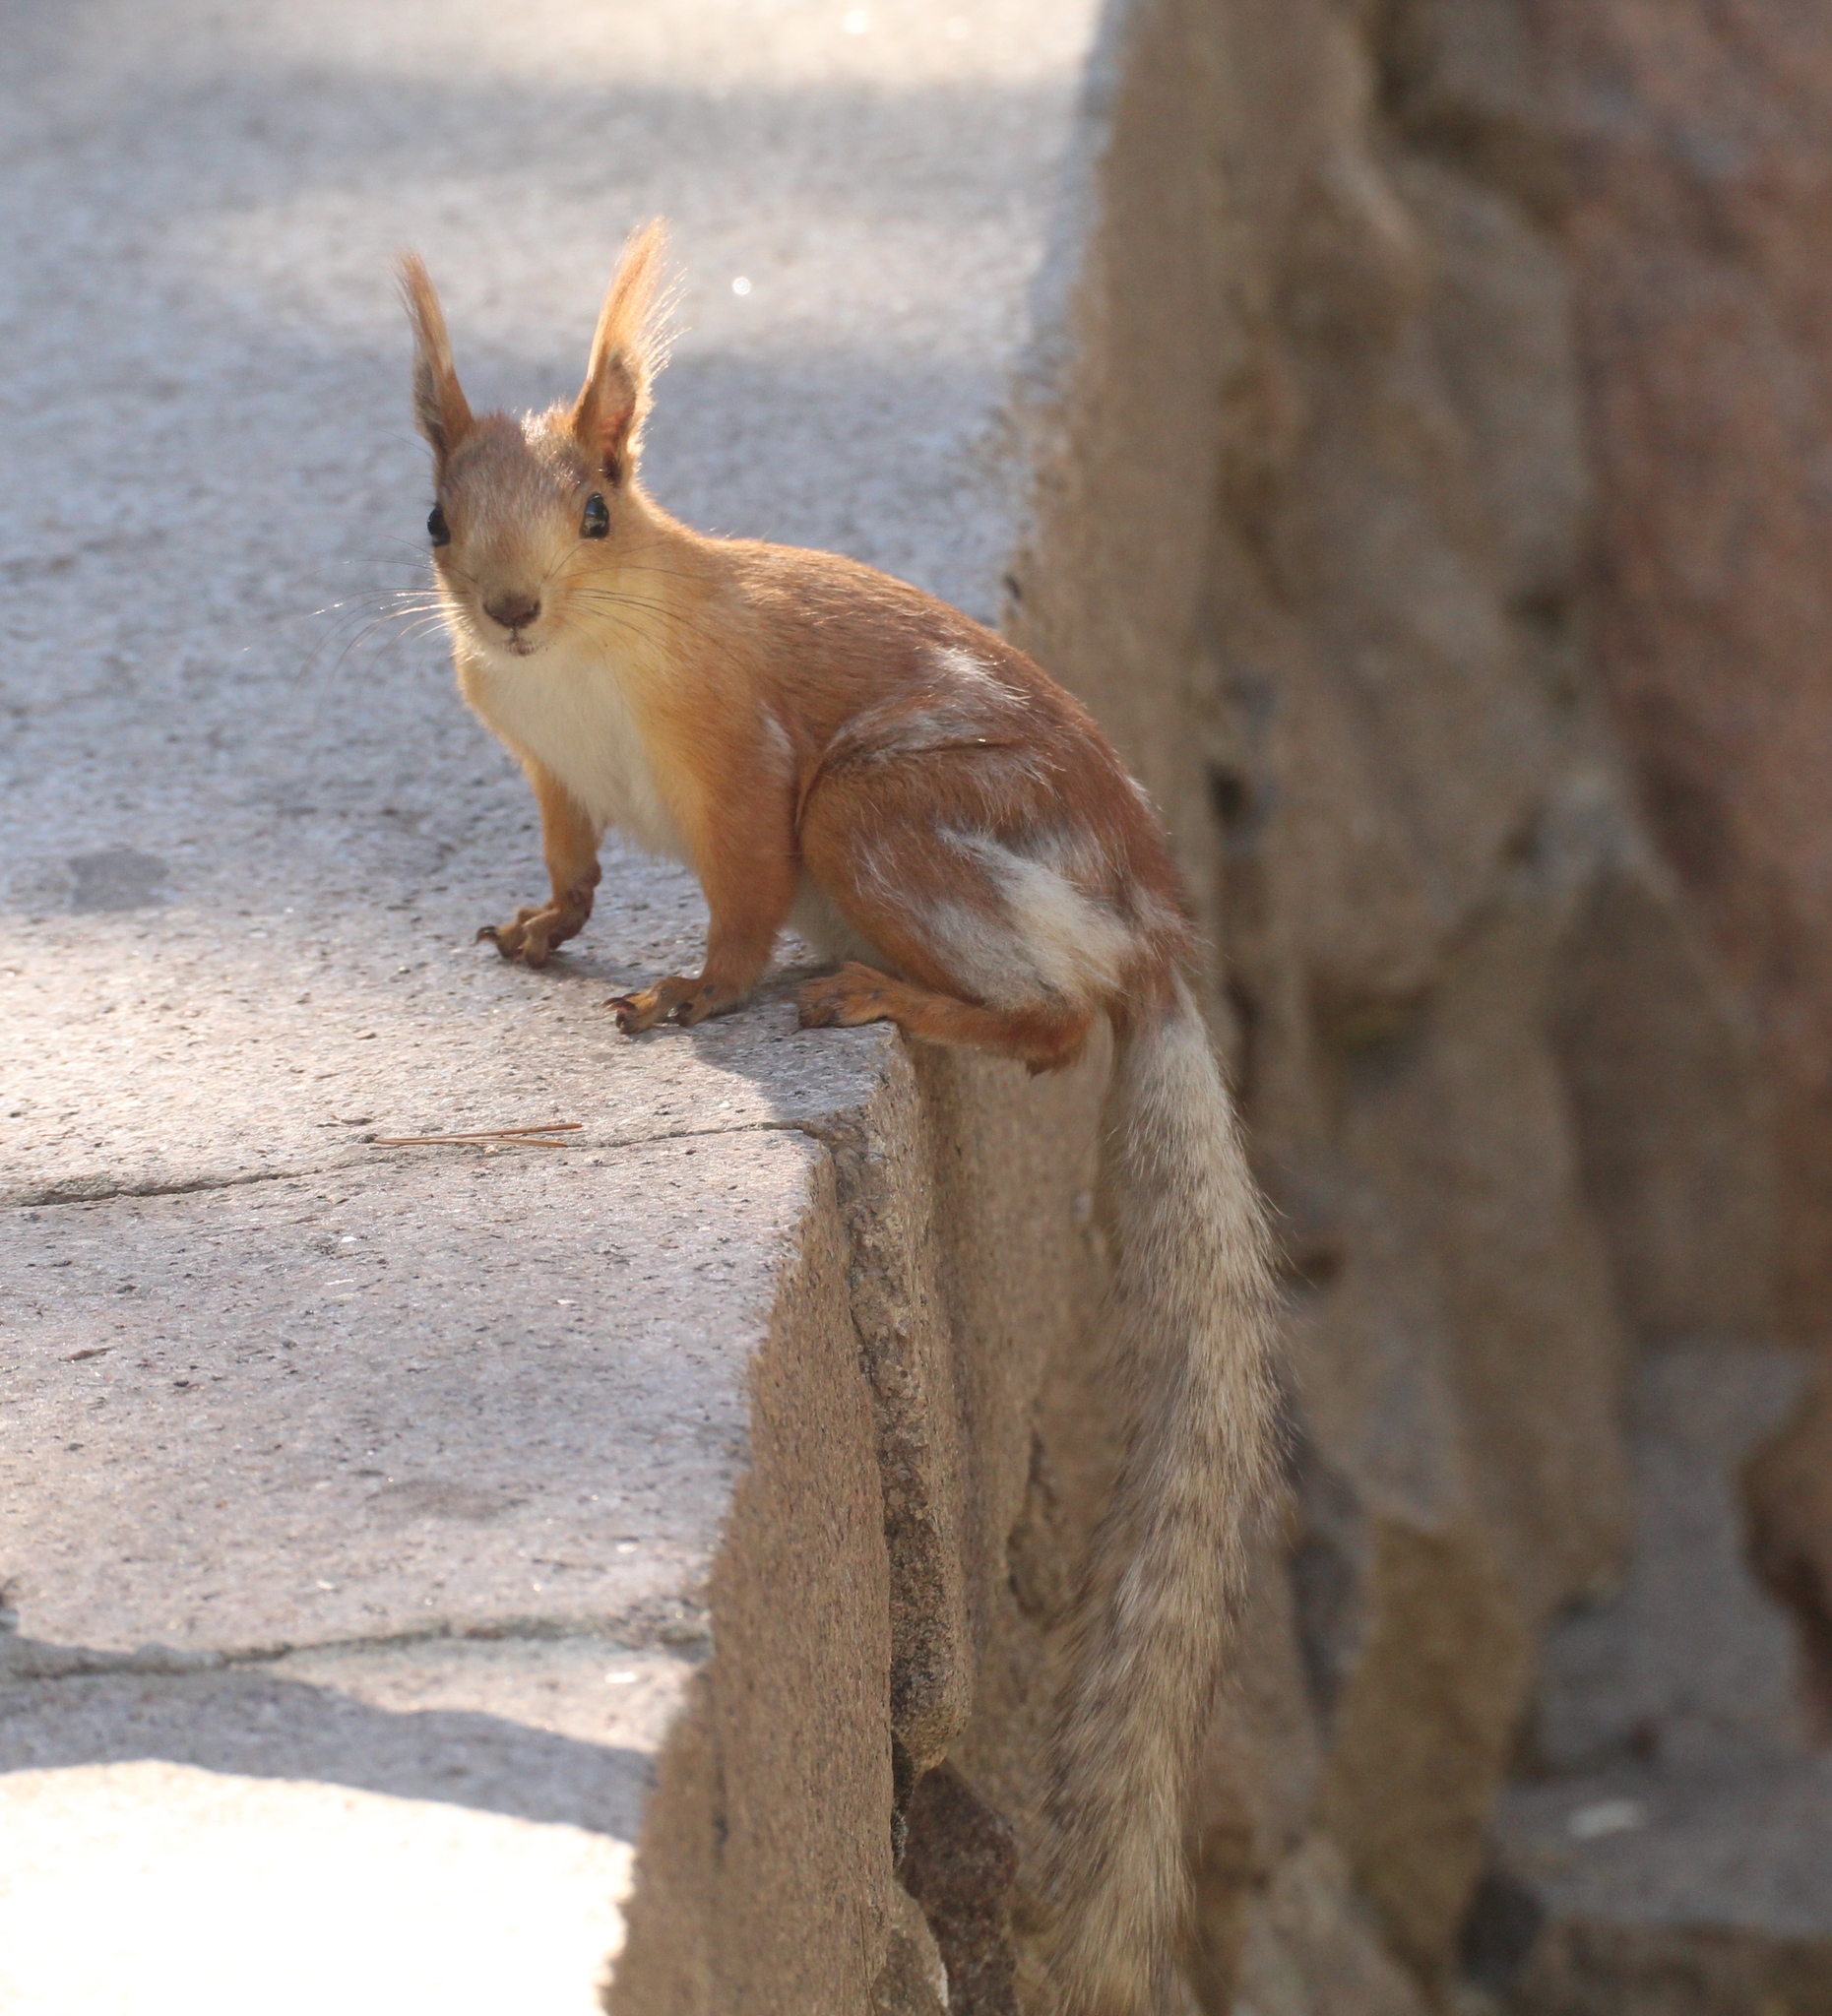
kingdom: Animalia
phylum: Chordata
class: Mammalia
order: Rodentia
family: Sciuridae
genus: Sciurus
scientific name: Sciurus vulgaris
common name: Eurasian red squirrel
